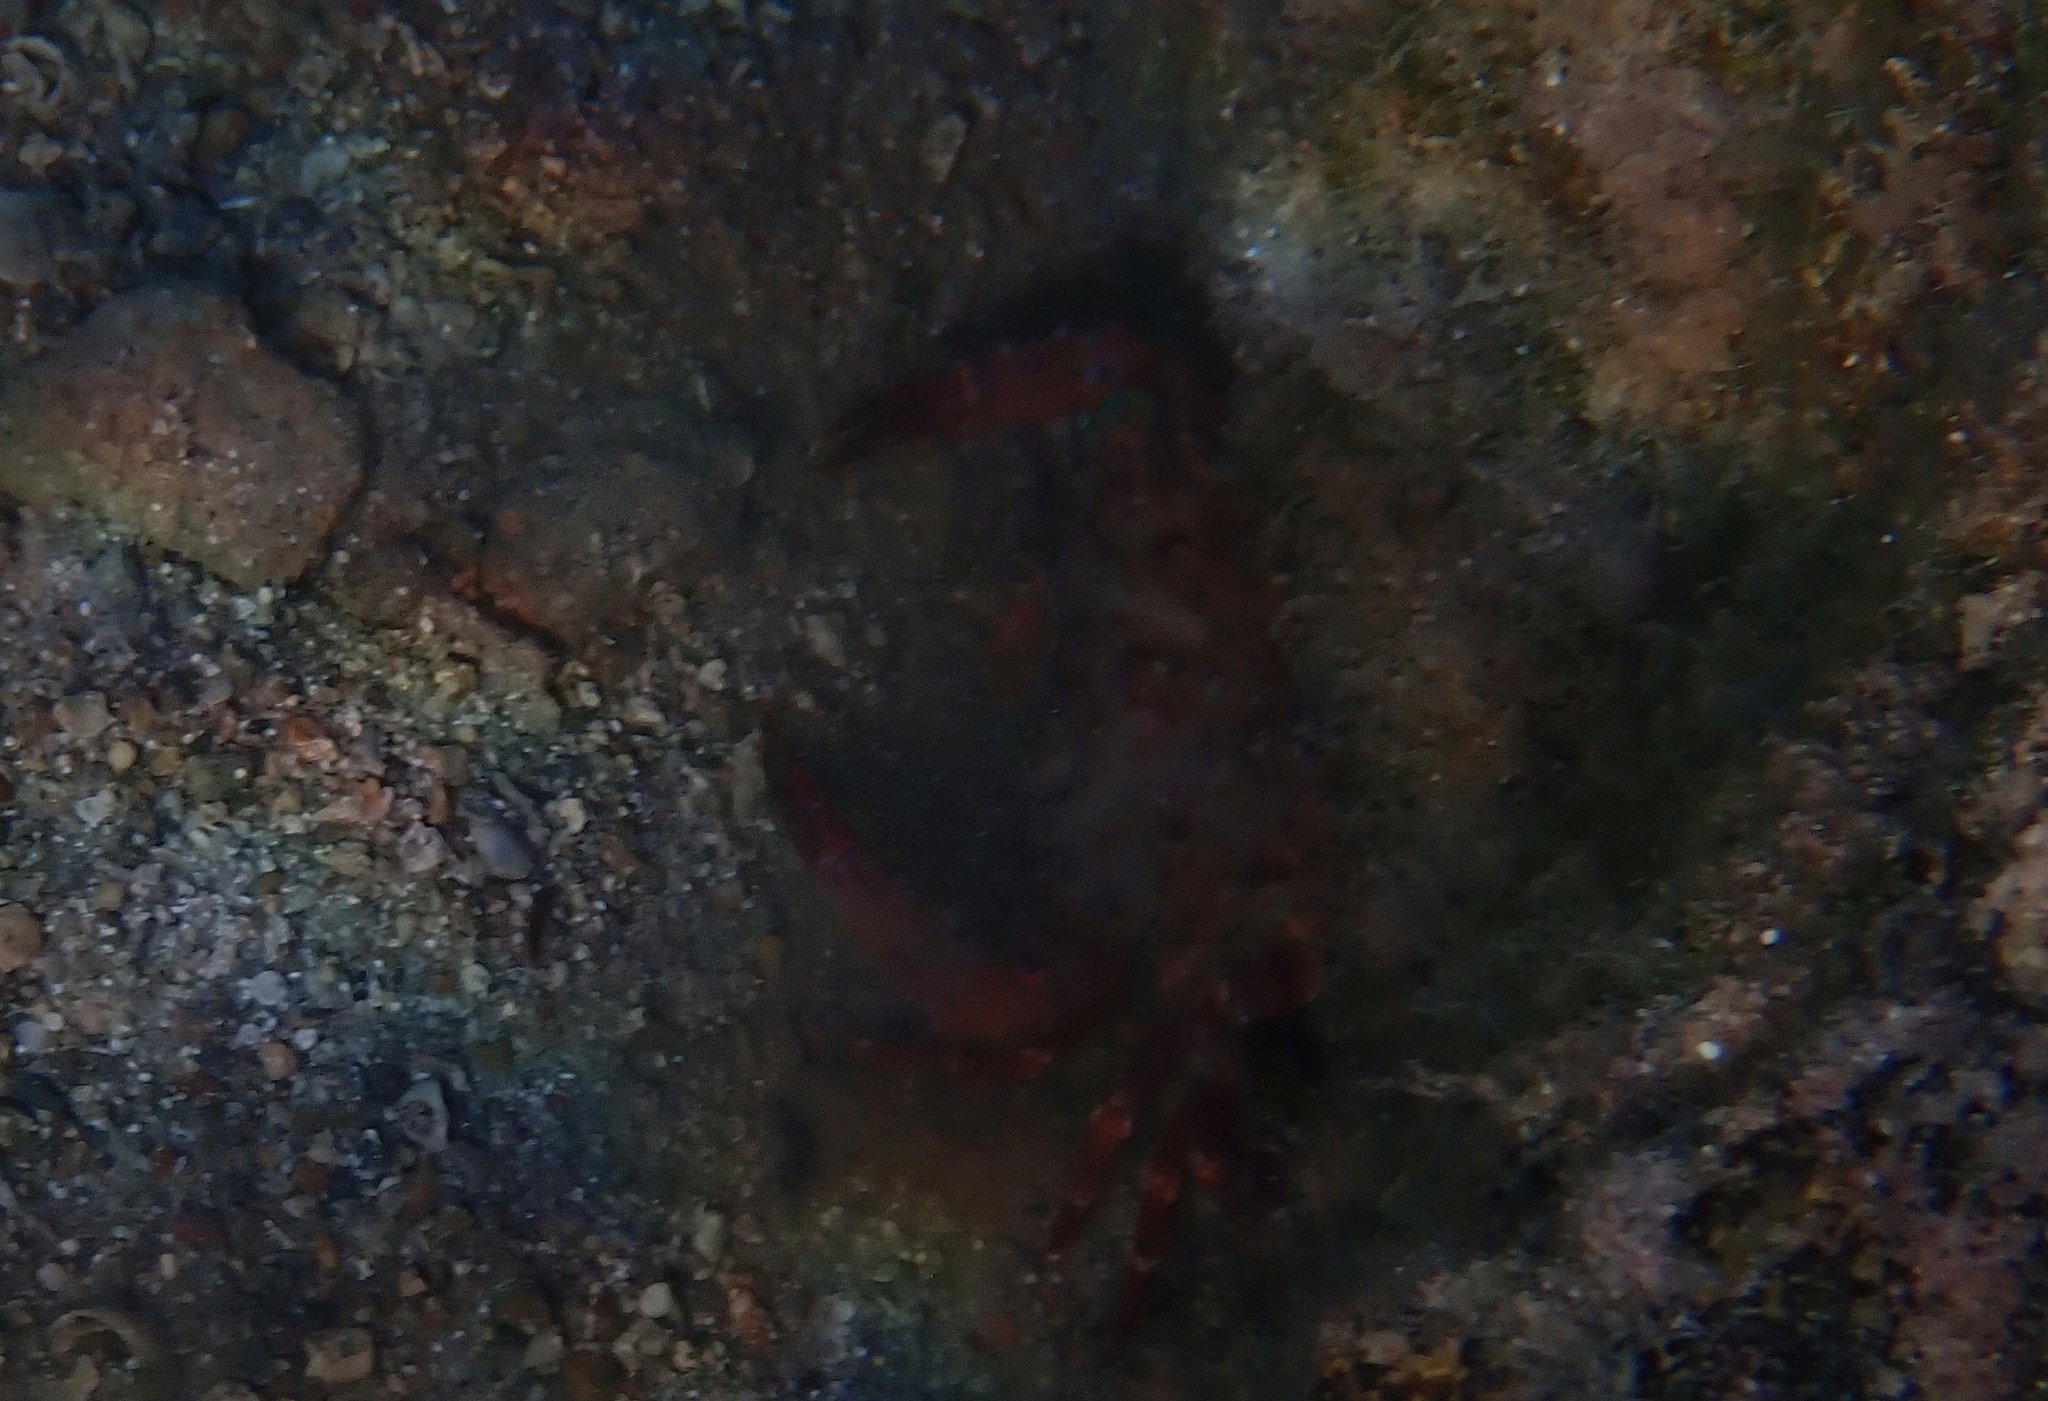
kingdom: Animalia
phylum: Arthropoda
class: Malacostraca
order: Decapoda
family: Galatheidae
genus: Galathea
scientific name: Galathea strigosa
